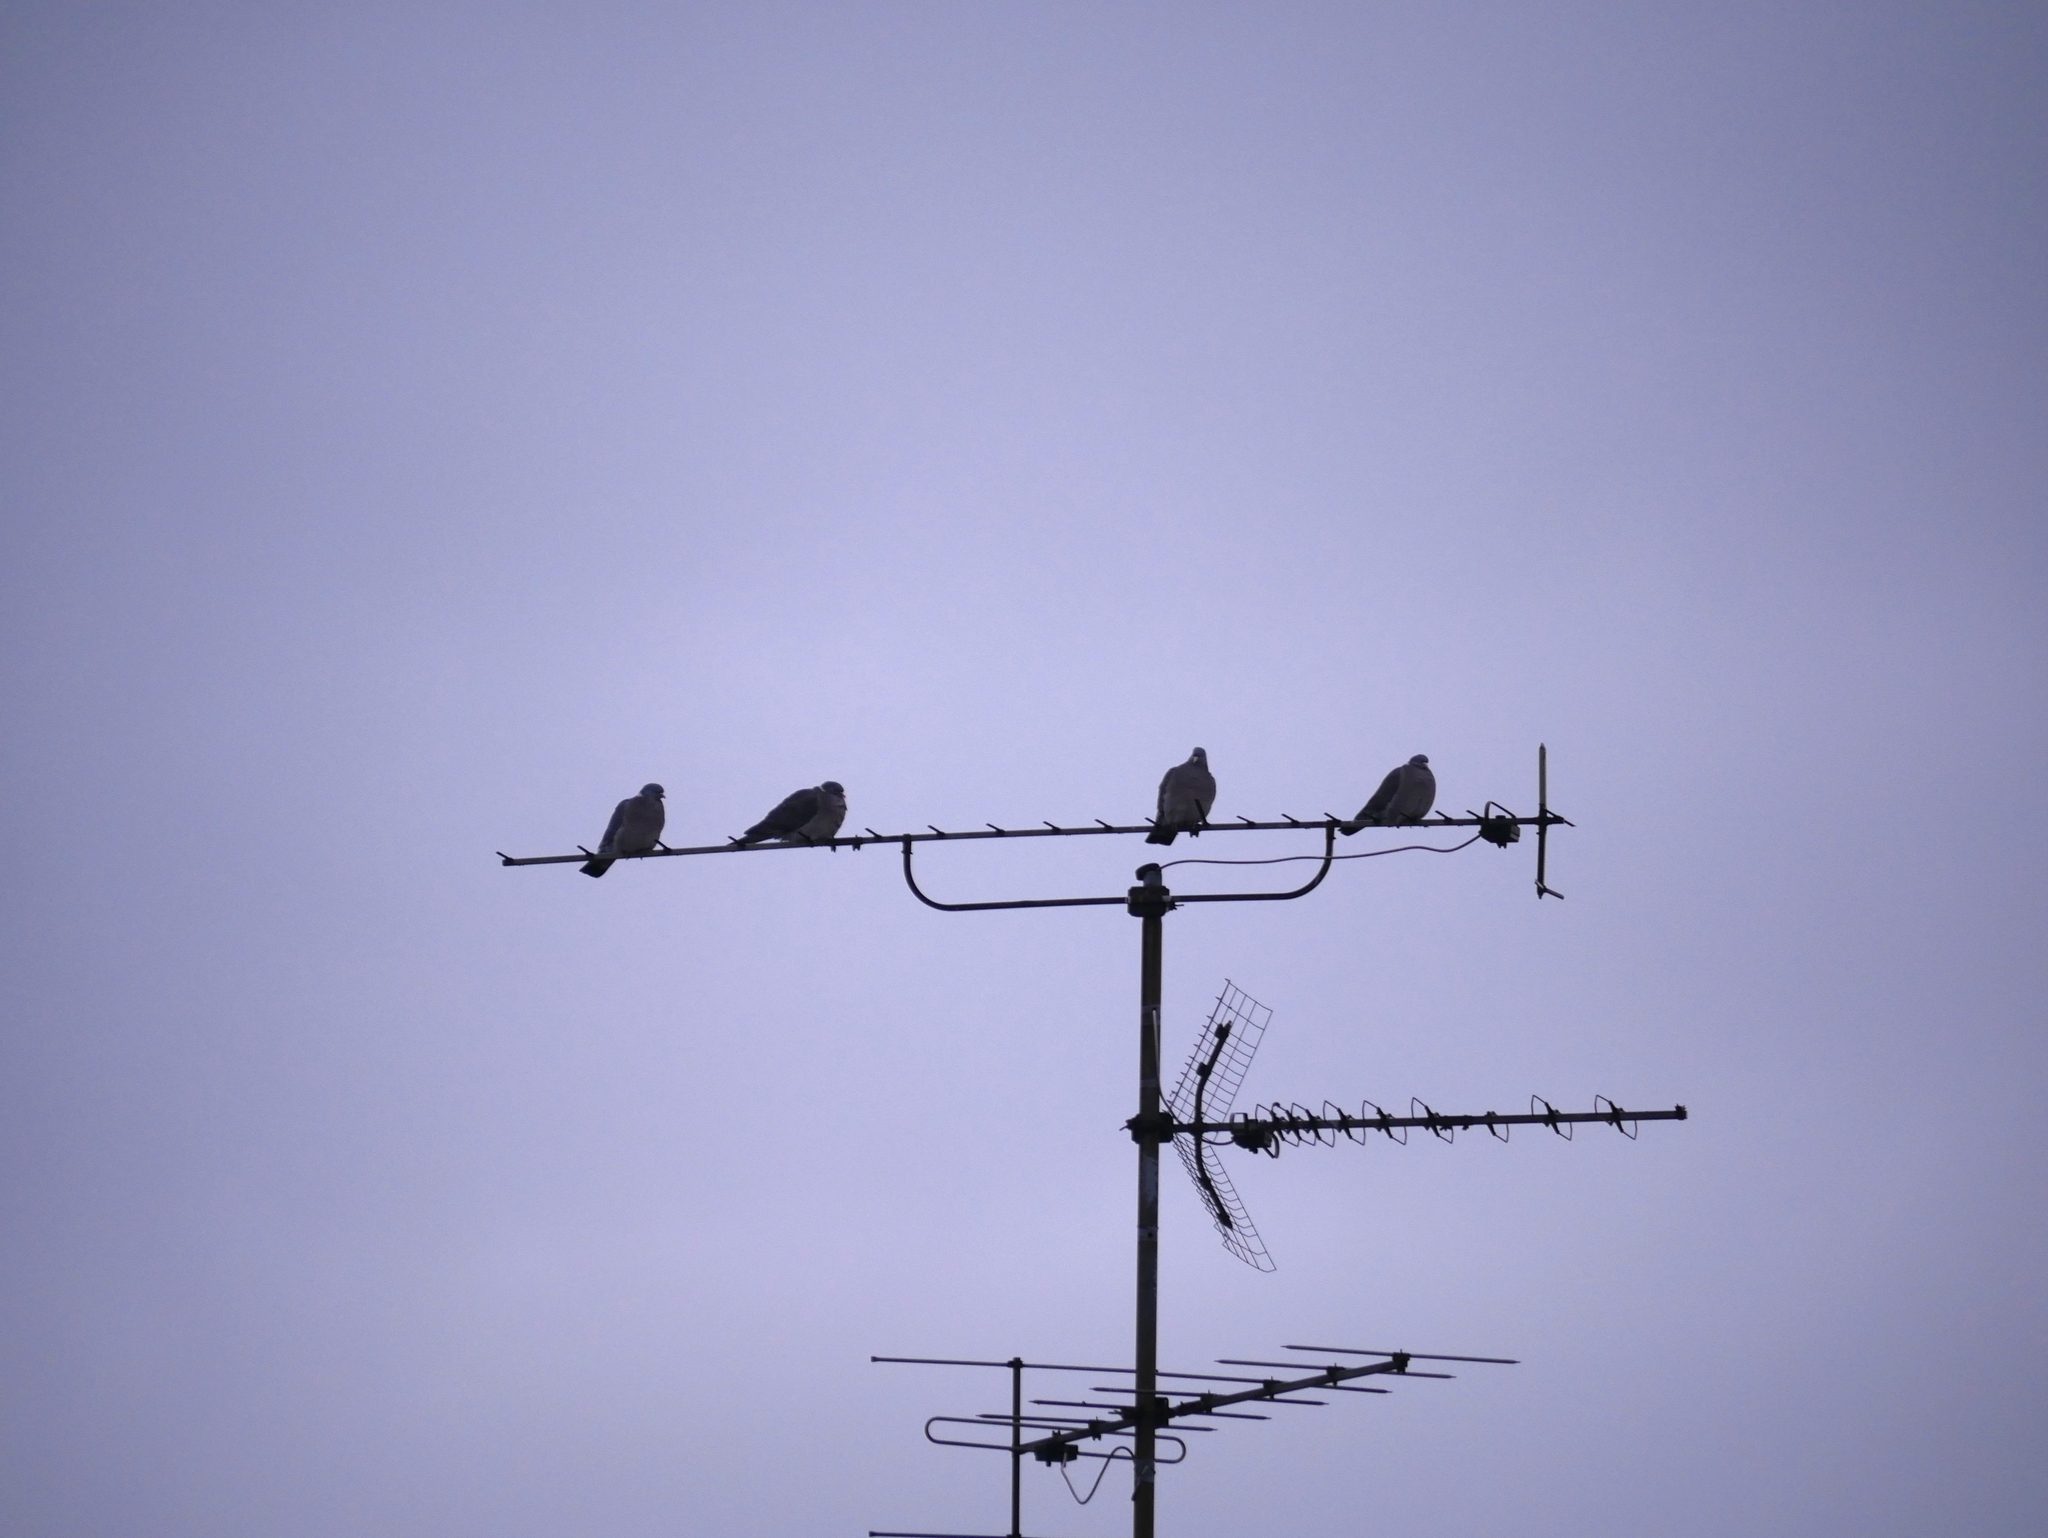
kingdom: Animalia
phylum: Chordata
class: Aves
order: Columbiformes
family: Columbidae
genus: Columba
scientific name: Columba palumbus
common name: Common wood pigeon
